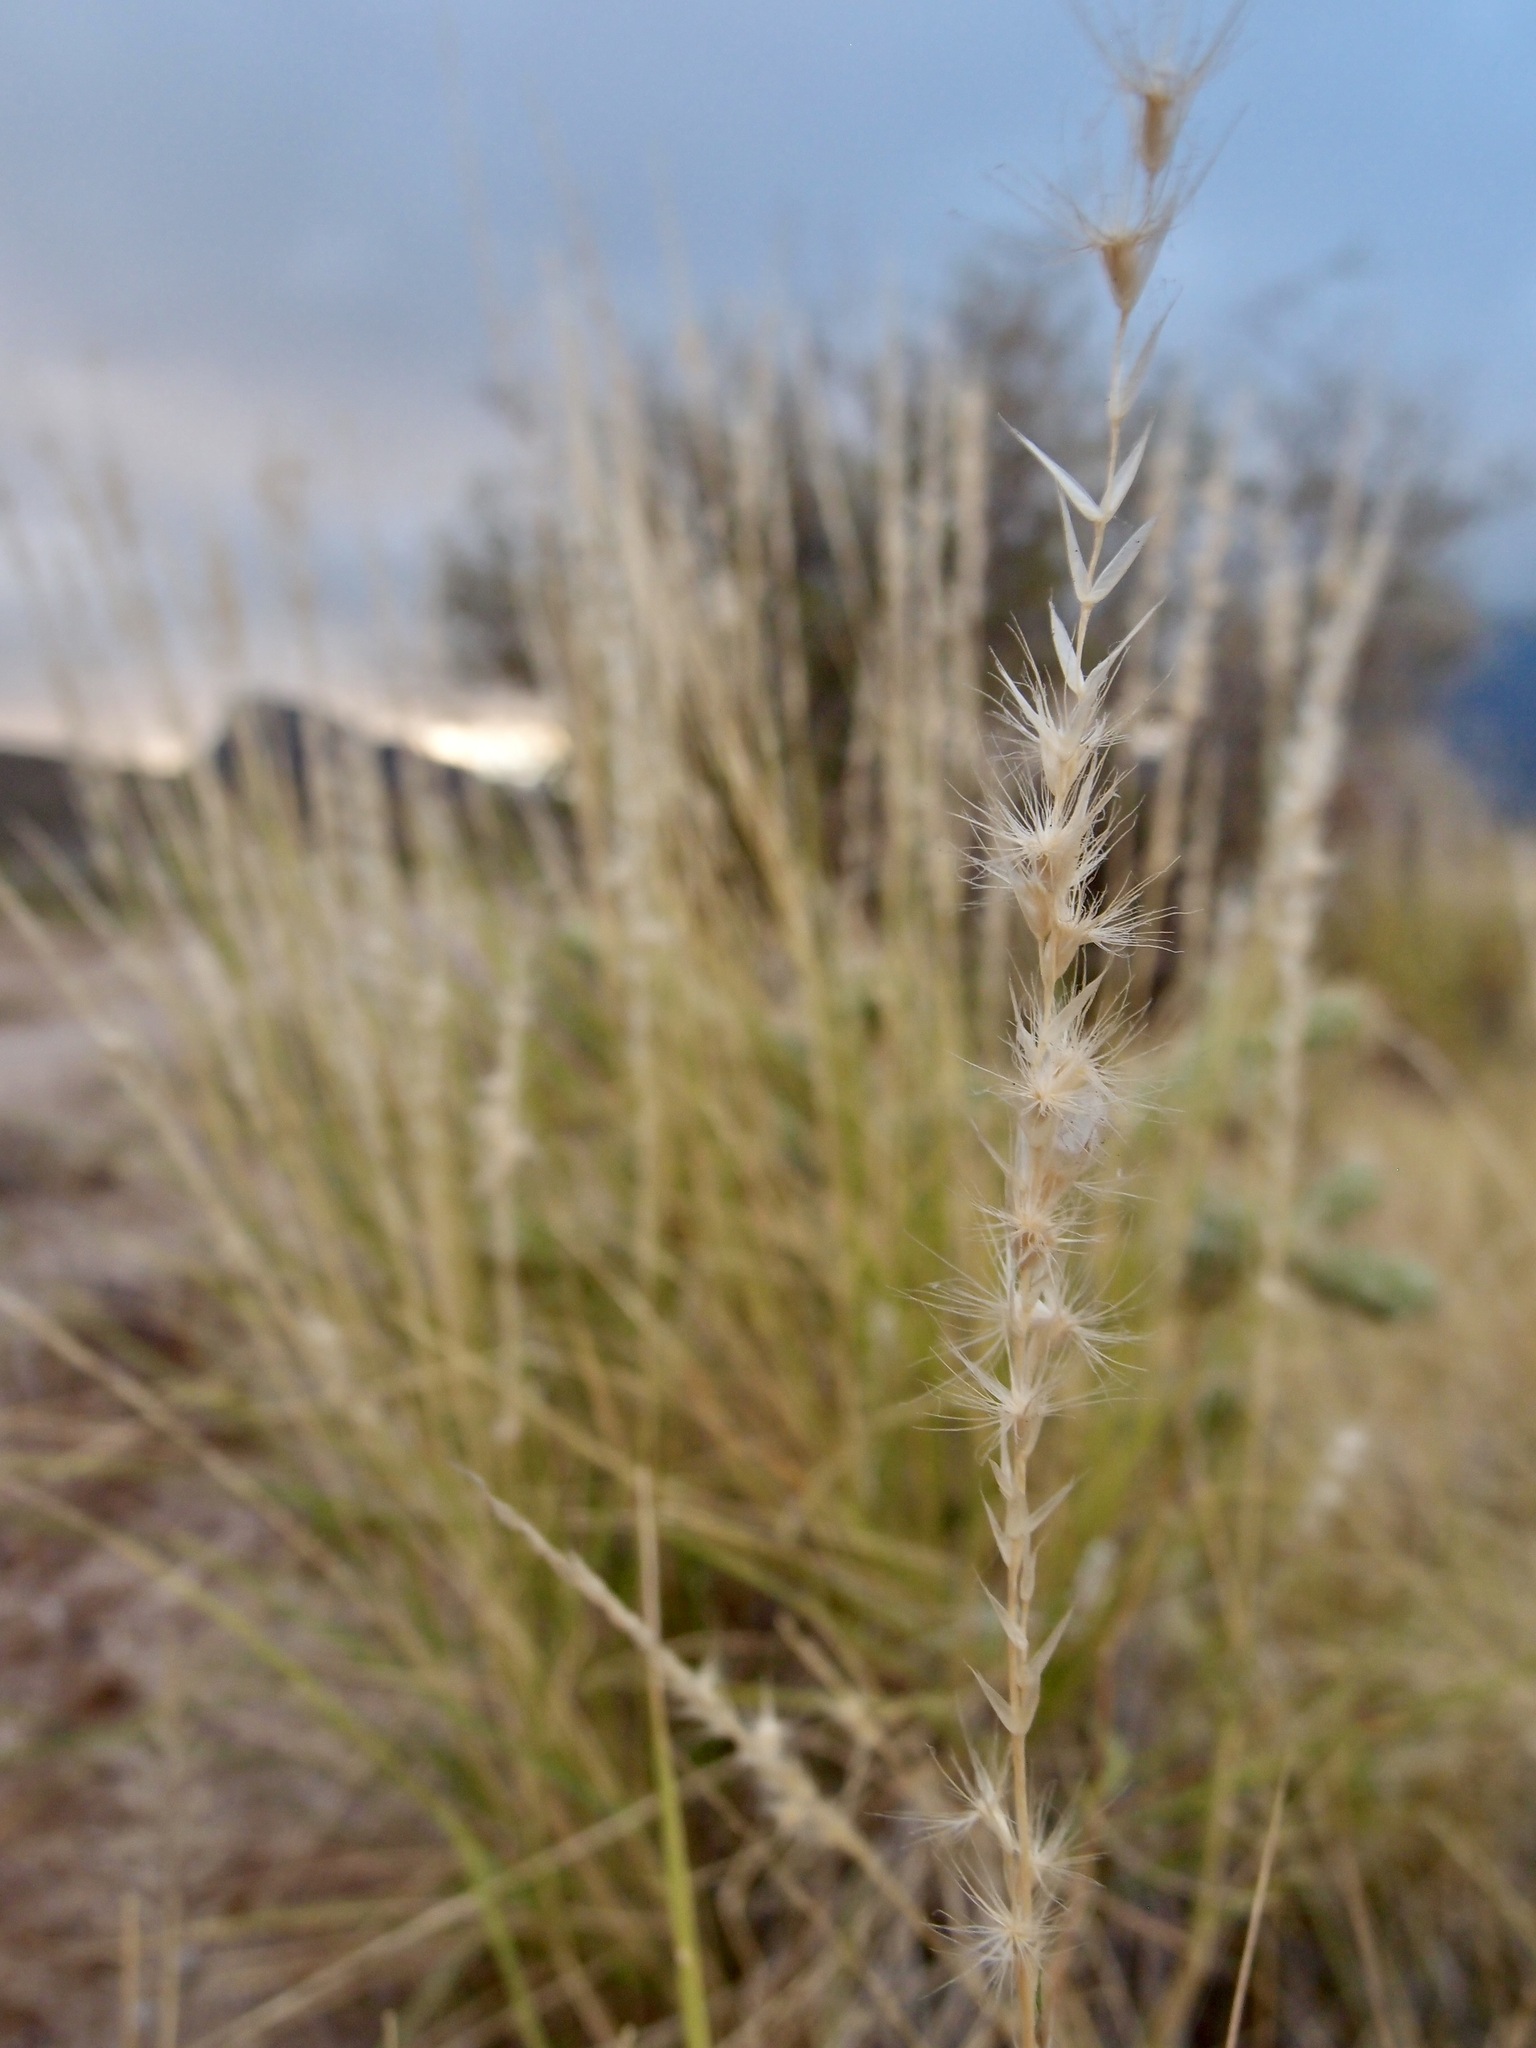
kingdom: Plantae
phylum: Tracheophyta
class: Liliopsida
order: Poales
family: Poaceae
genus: Pappophorum
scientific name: Pappophorum philippianum
